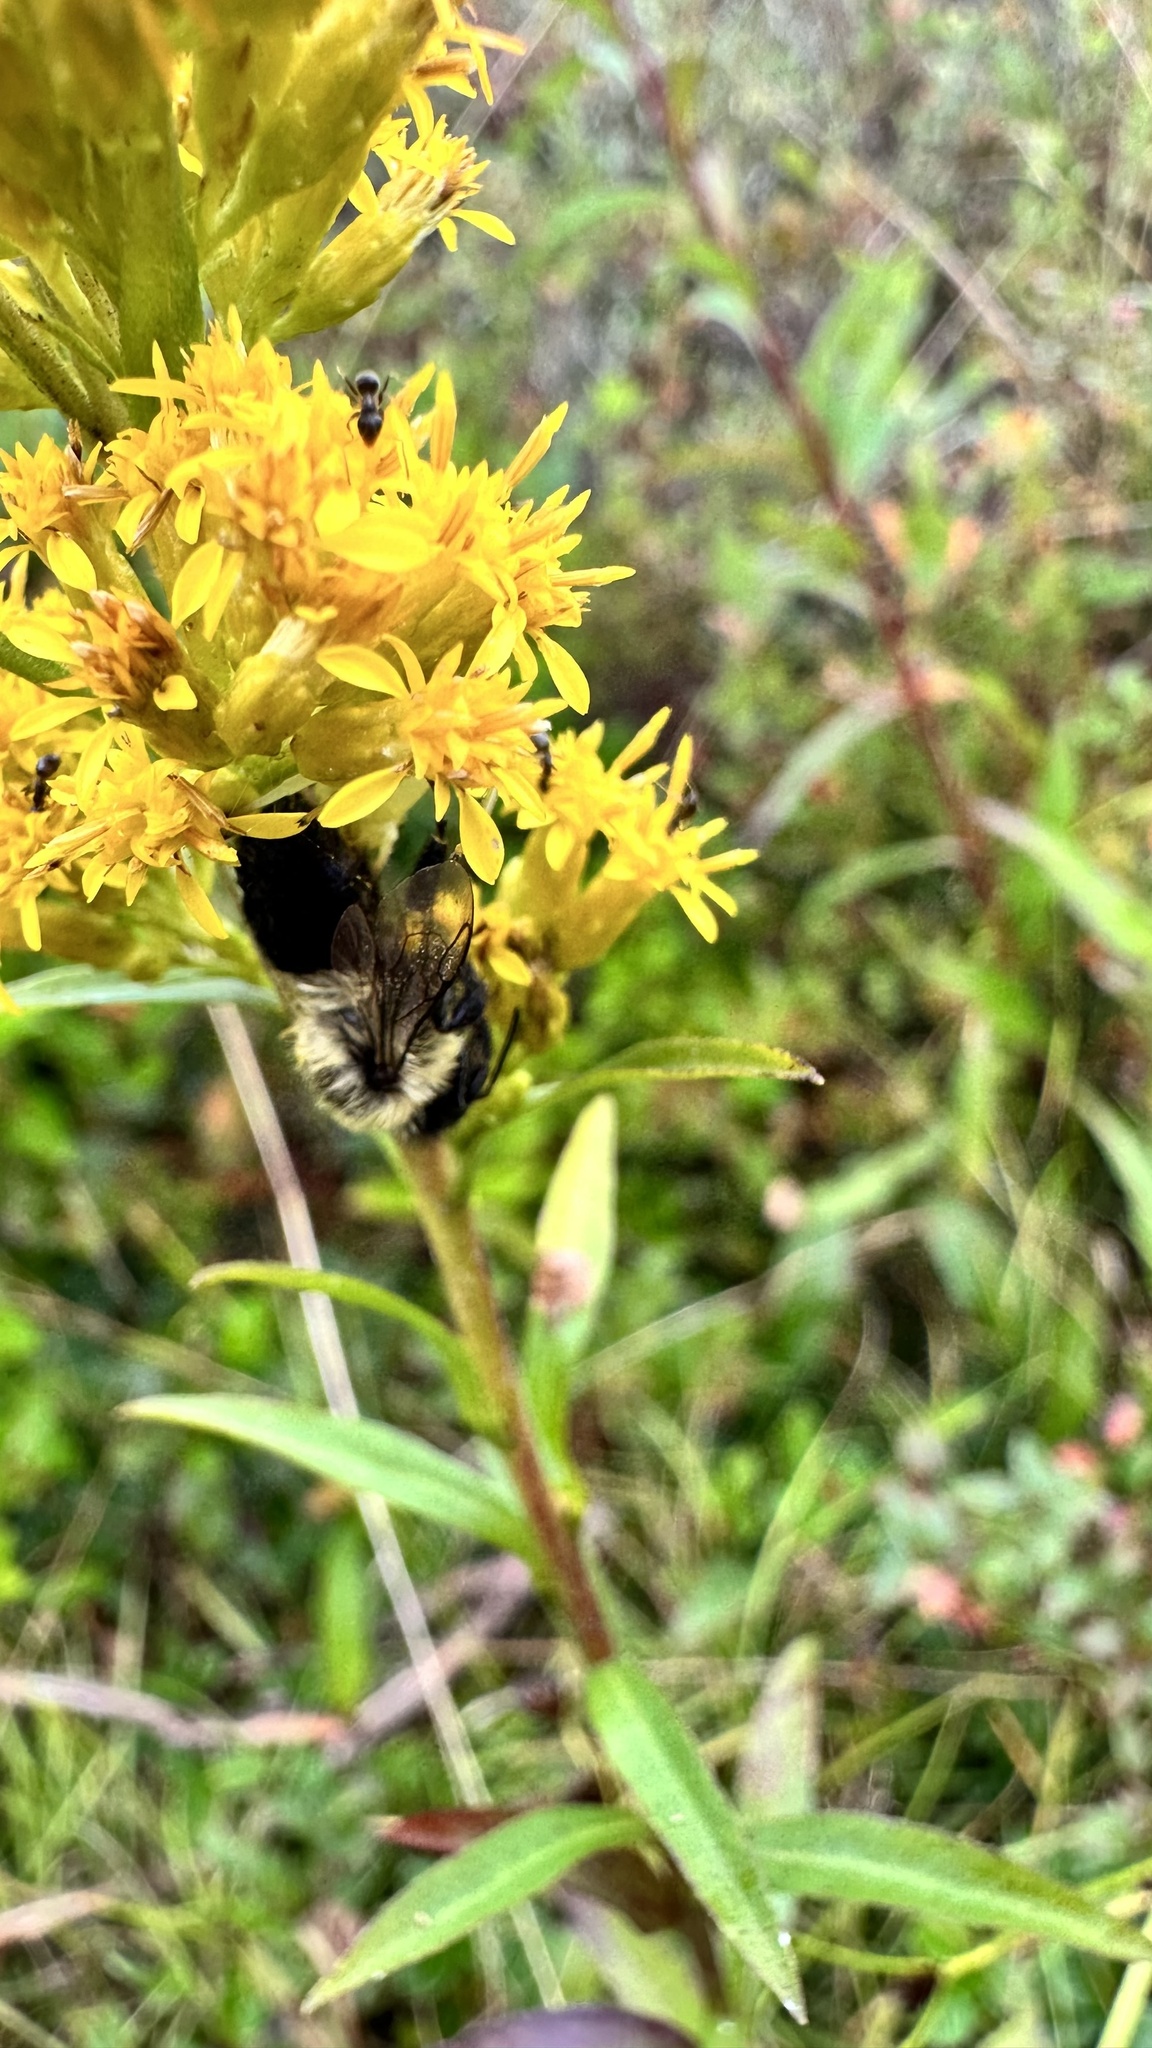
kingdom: Animalia
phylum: Arthropoda
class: Insecta
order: Hymenoptera
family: Apidae
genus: Bombus
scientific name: Bombus impatiens
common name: Common eastern bumble bee
